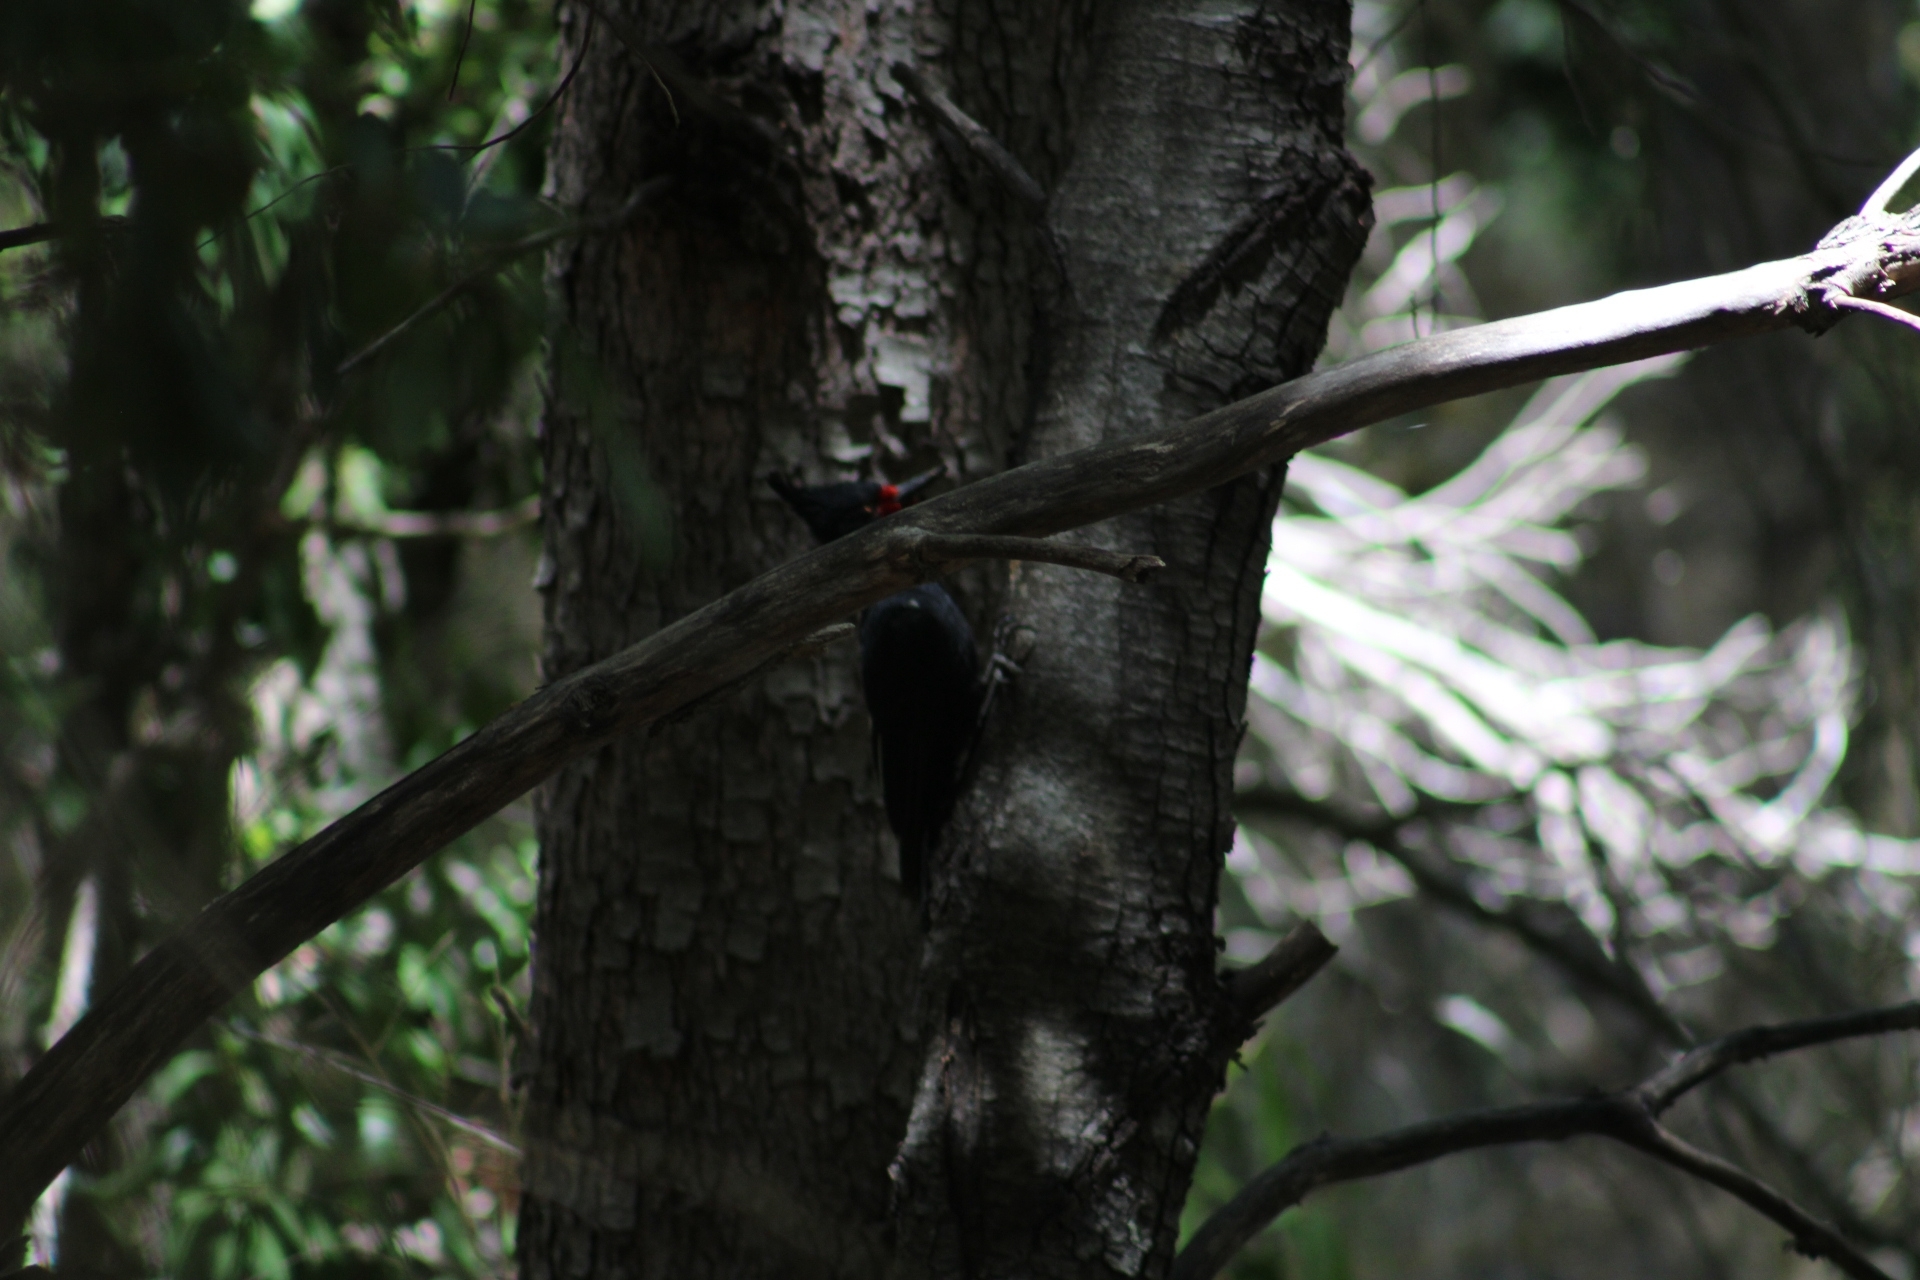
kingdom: Animalia
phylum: Chordata
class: Aves
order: Piciformes
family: Picidae
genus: Campephilus
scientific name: Campephilus magellanicus
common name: Magellanic woodpecker
